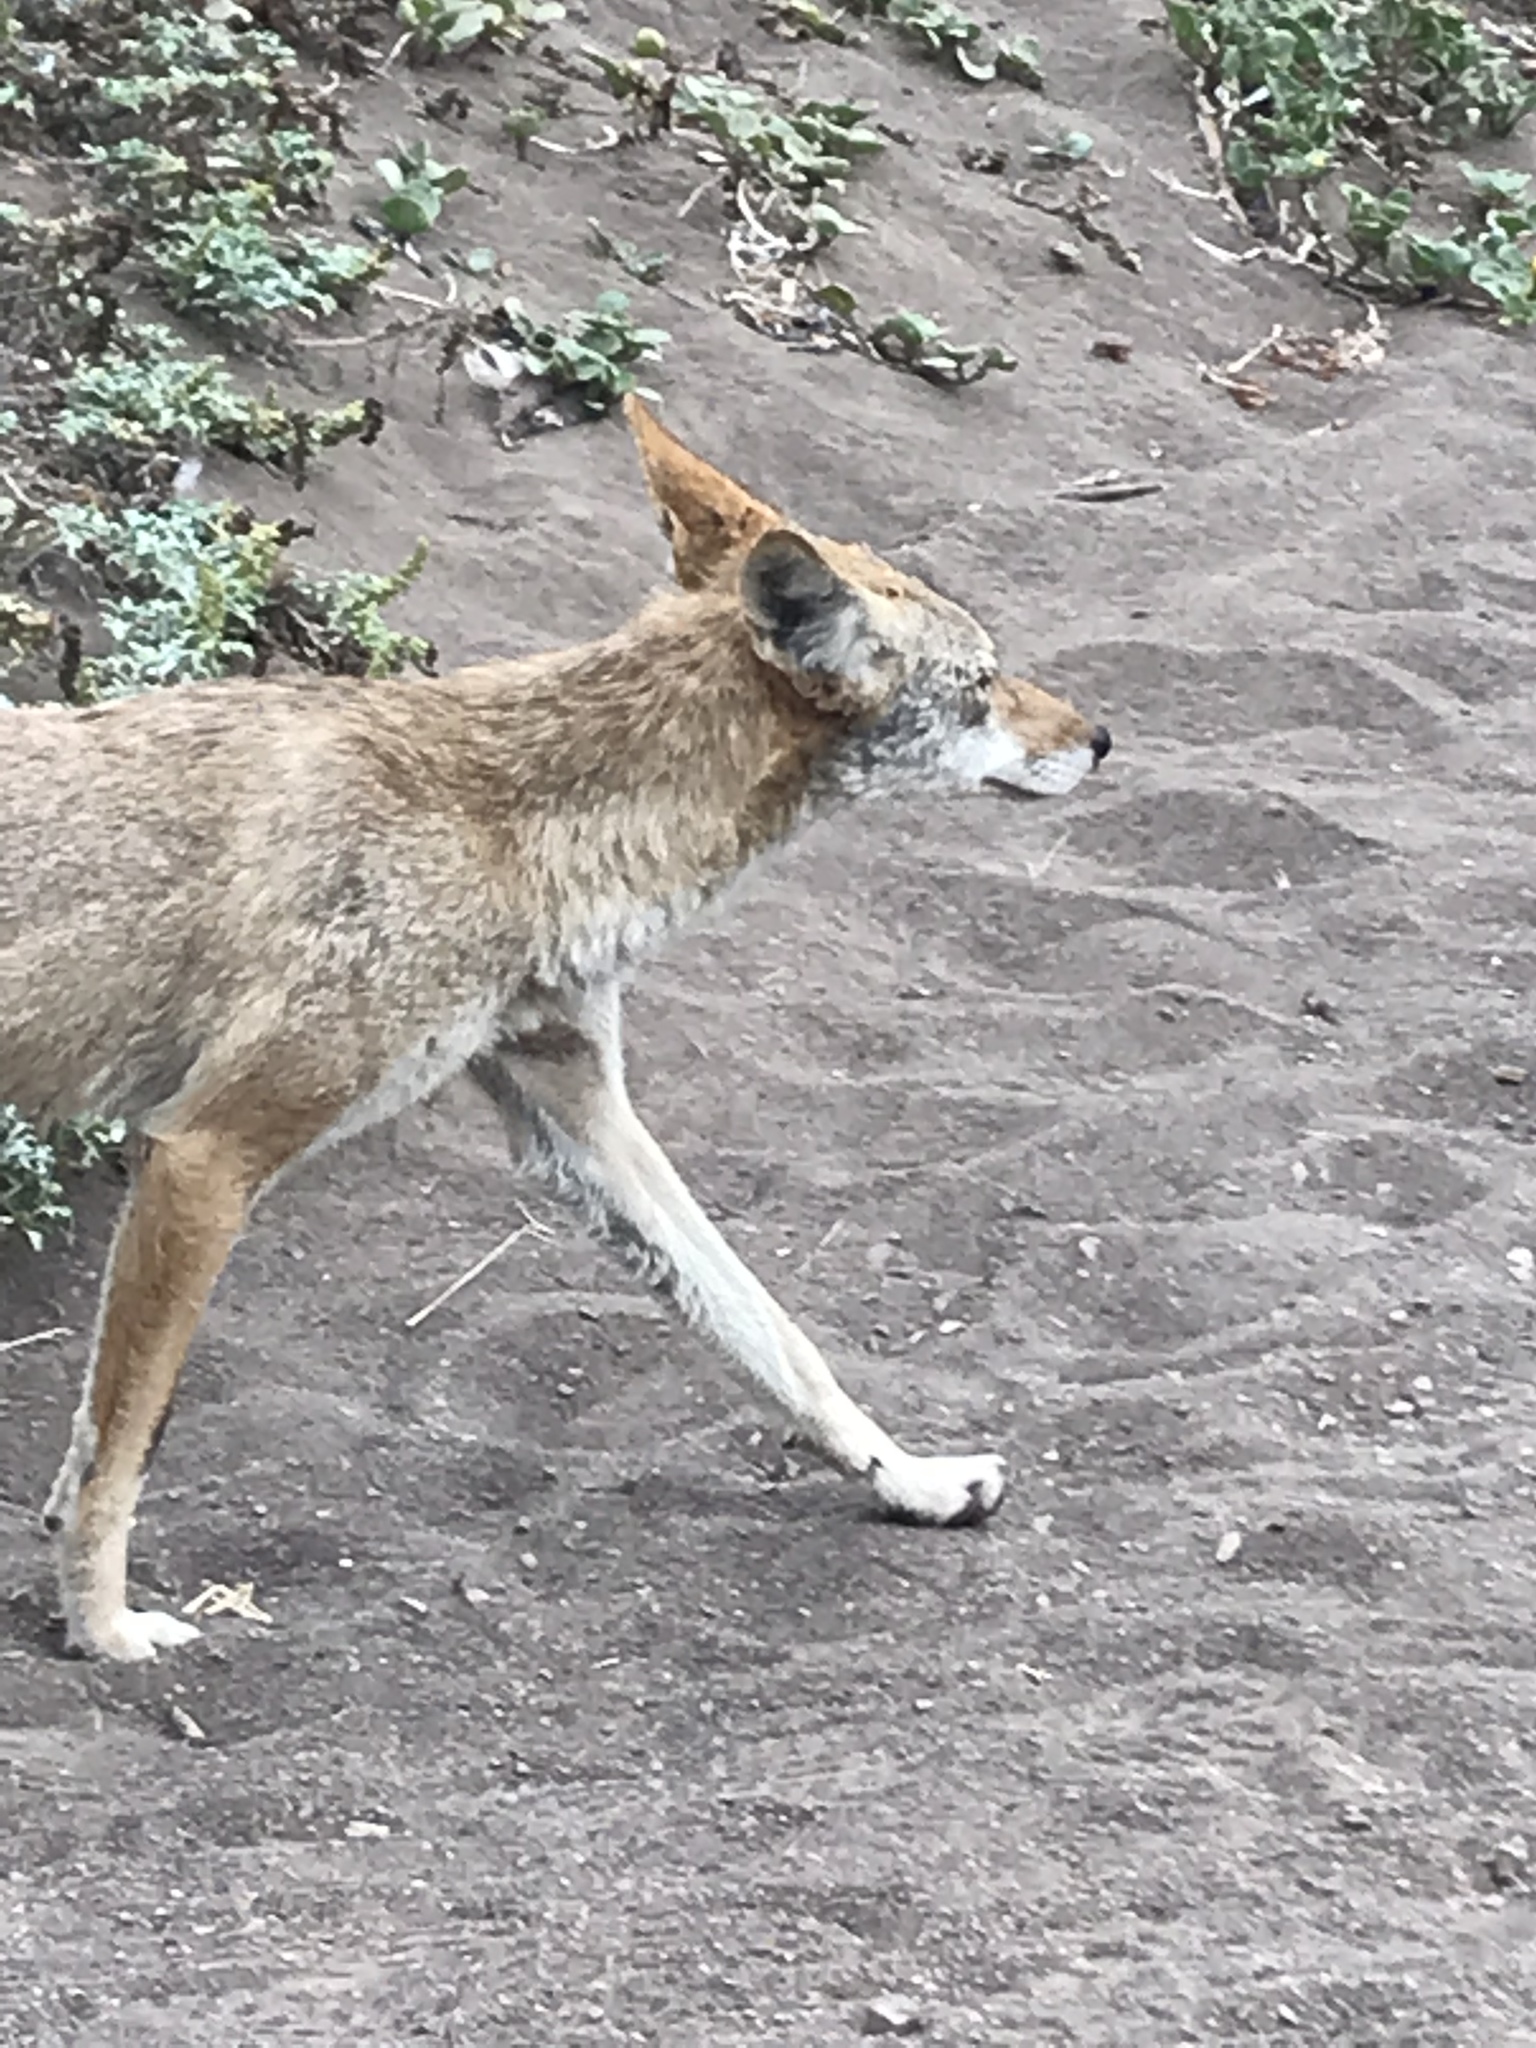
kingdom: Animalia
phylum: Chordata
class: Mammalia
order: Carnivora
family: Canidae
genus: Canis
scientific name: Canis latrans
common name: Coyote
